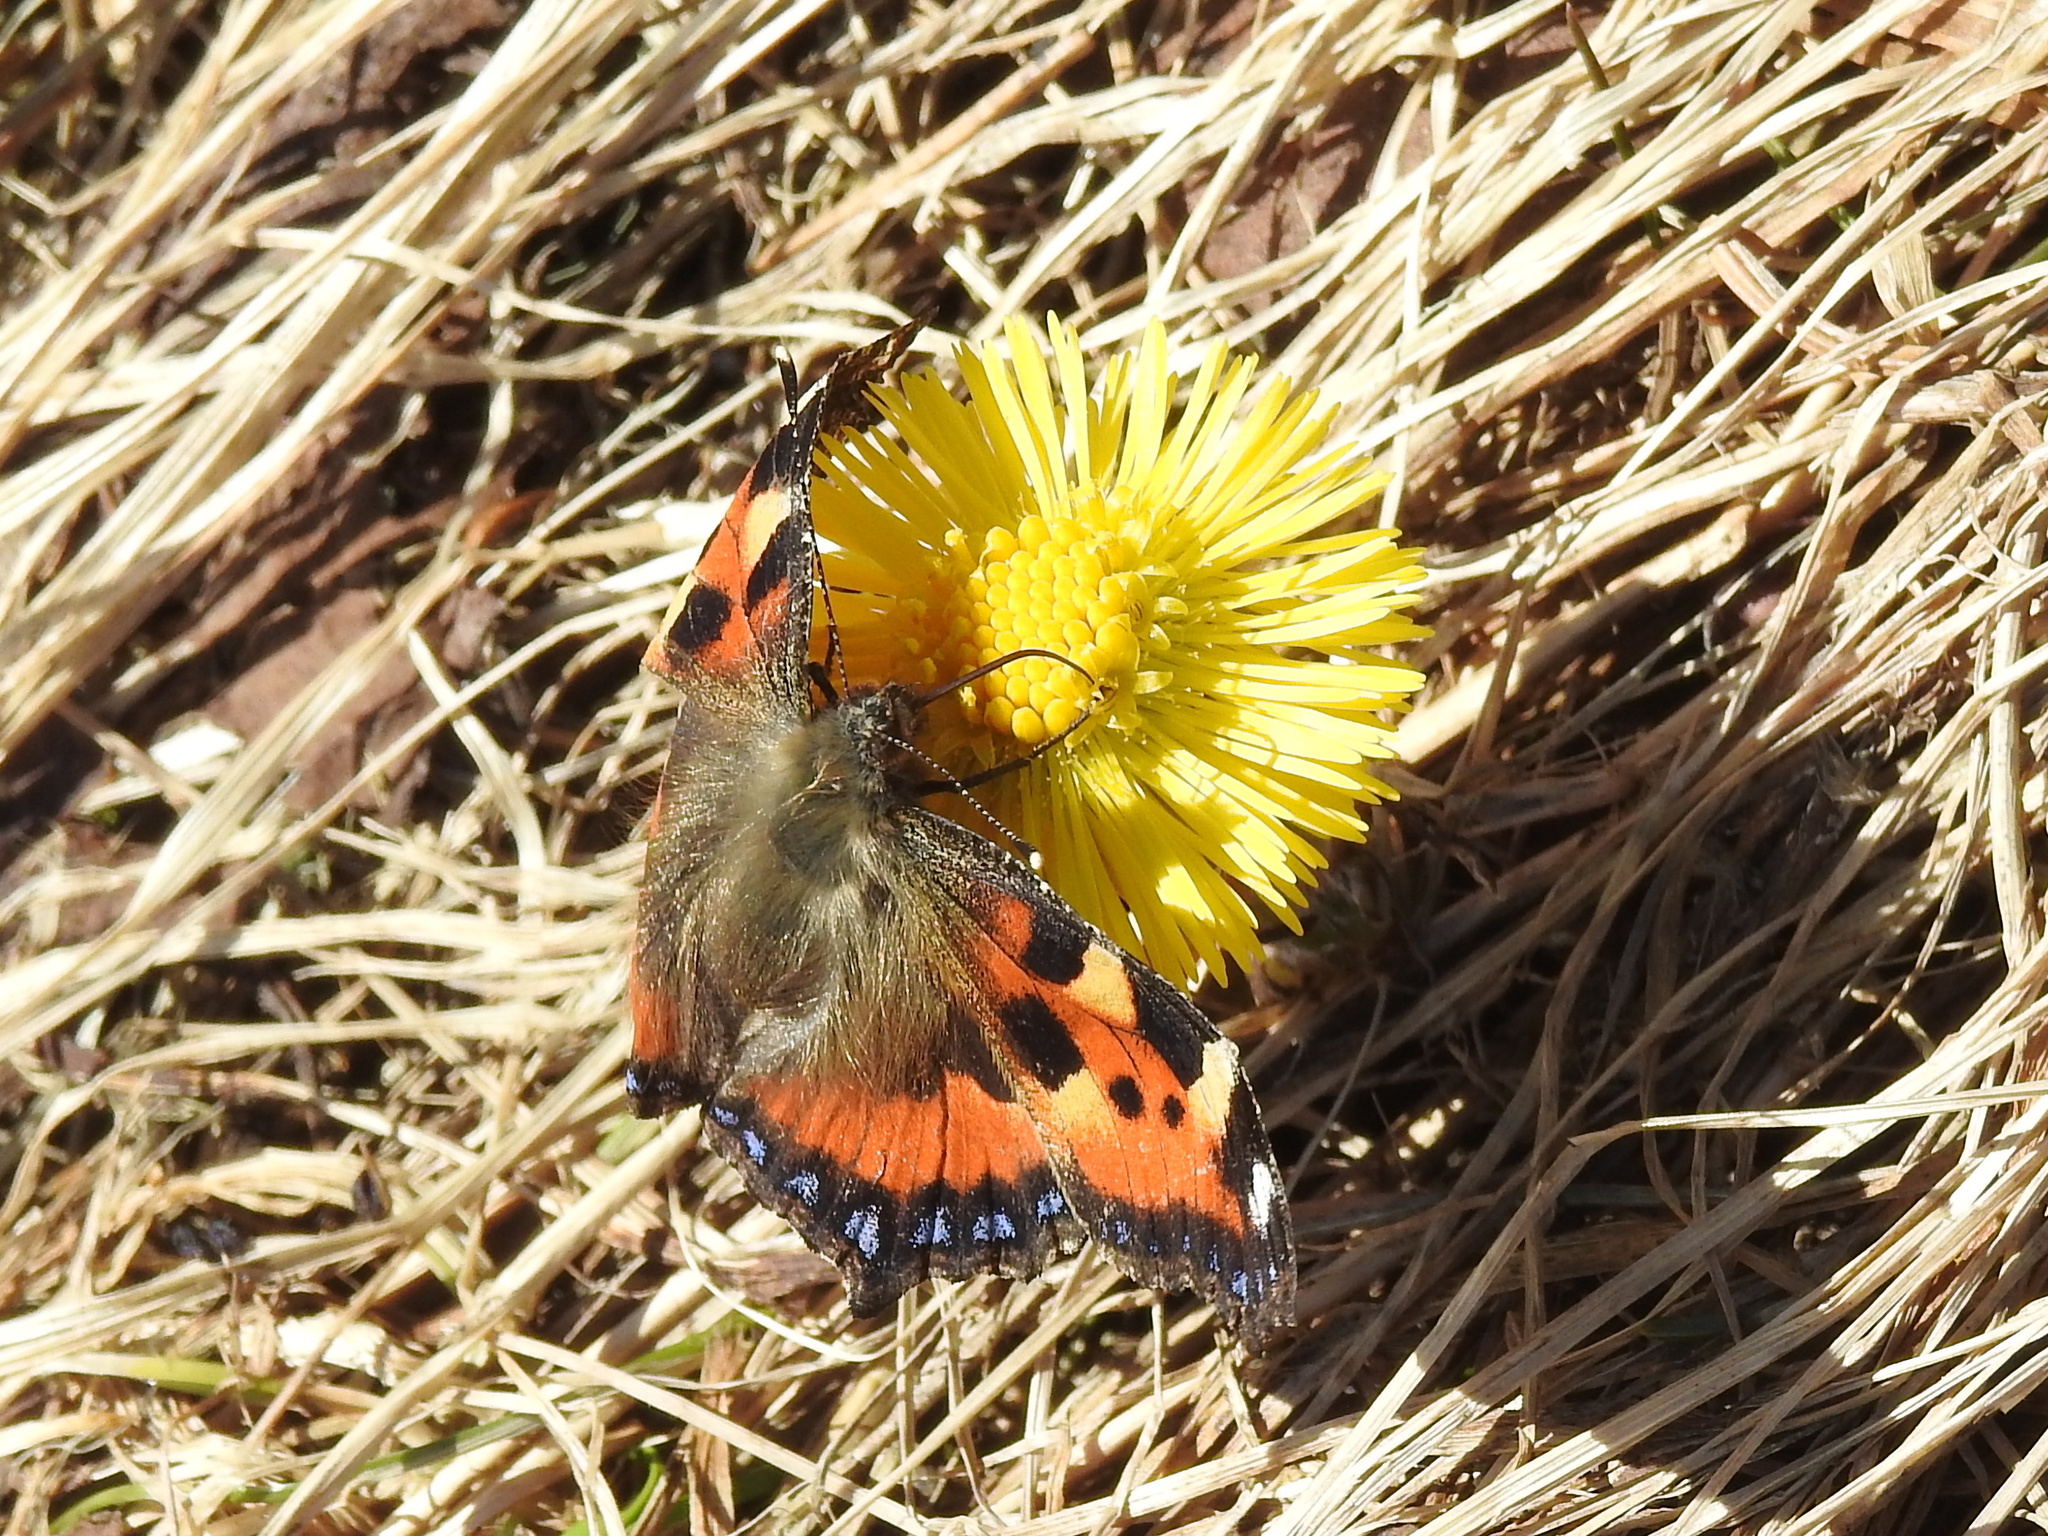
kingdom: Animalia
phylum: Arthropoda
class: Insecta
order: Lepidoptera
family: Nymphalidae
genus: Aglais
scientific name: Aglais urticae
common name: Small tortoiseshell
